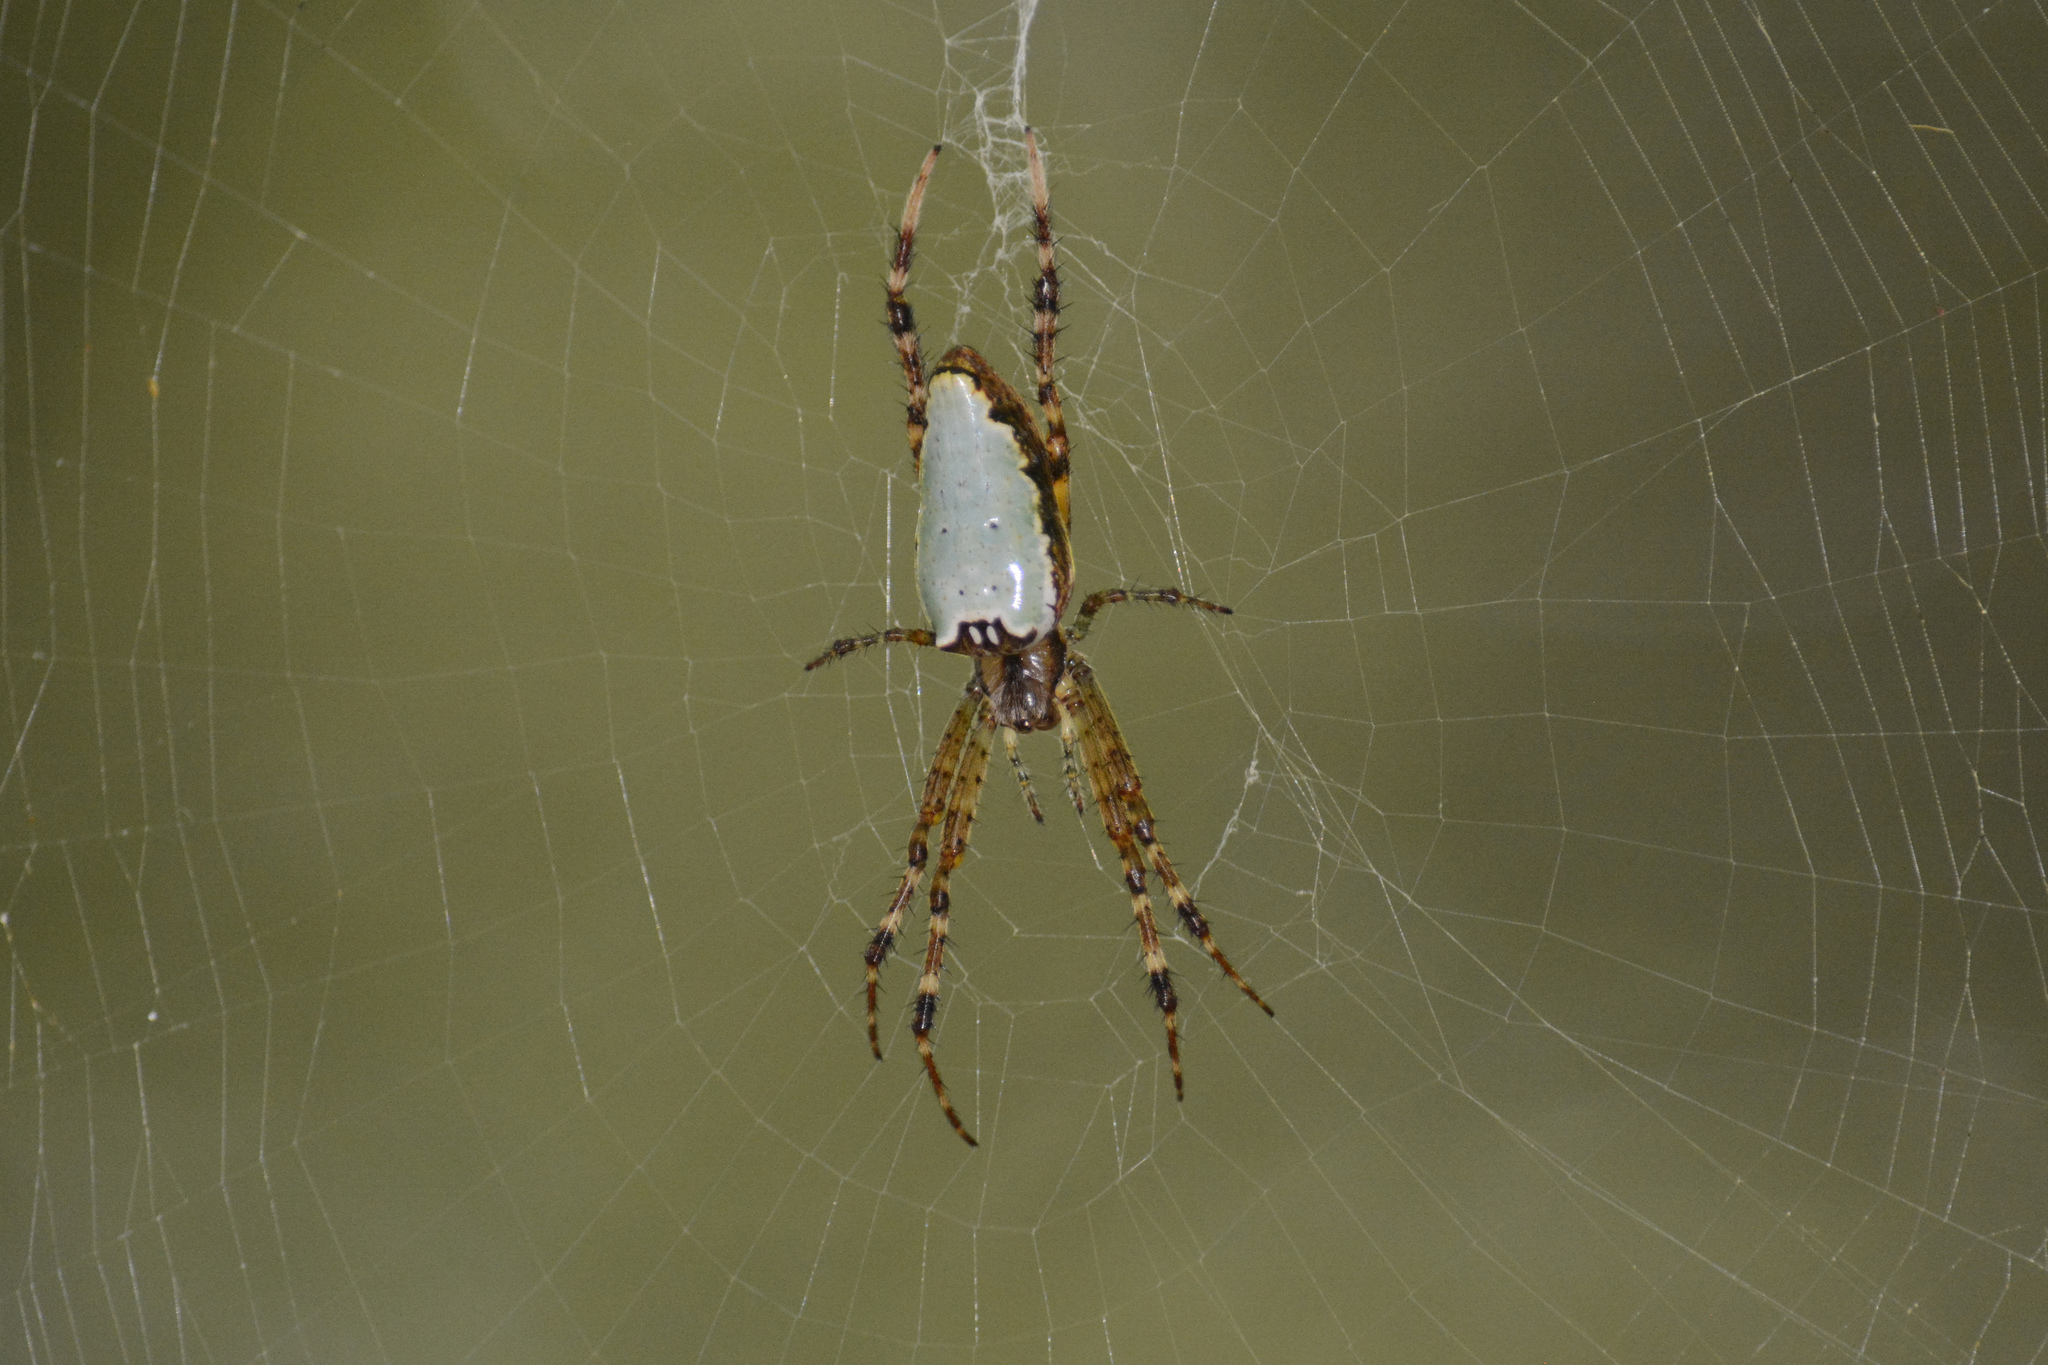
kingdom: Animalia
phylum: Arthropoda
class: Arachnida
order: Araneae
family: Araneidae
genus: Plebs
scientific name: Plebs bradleyi
